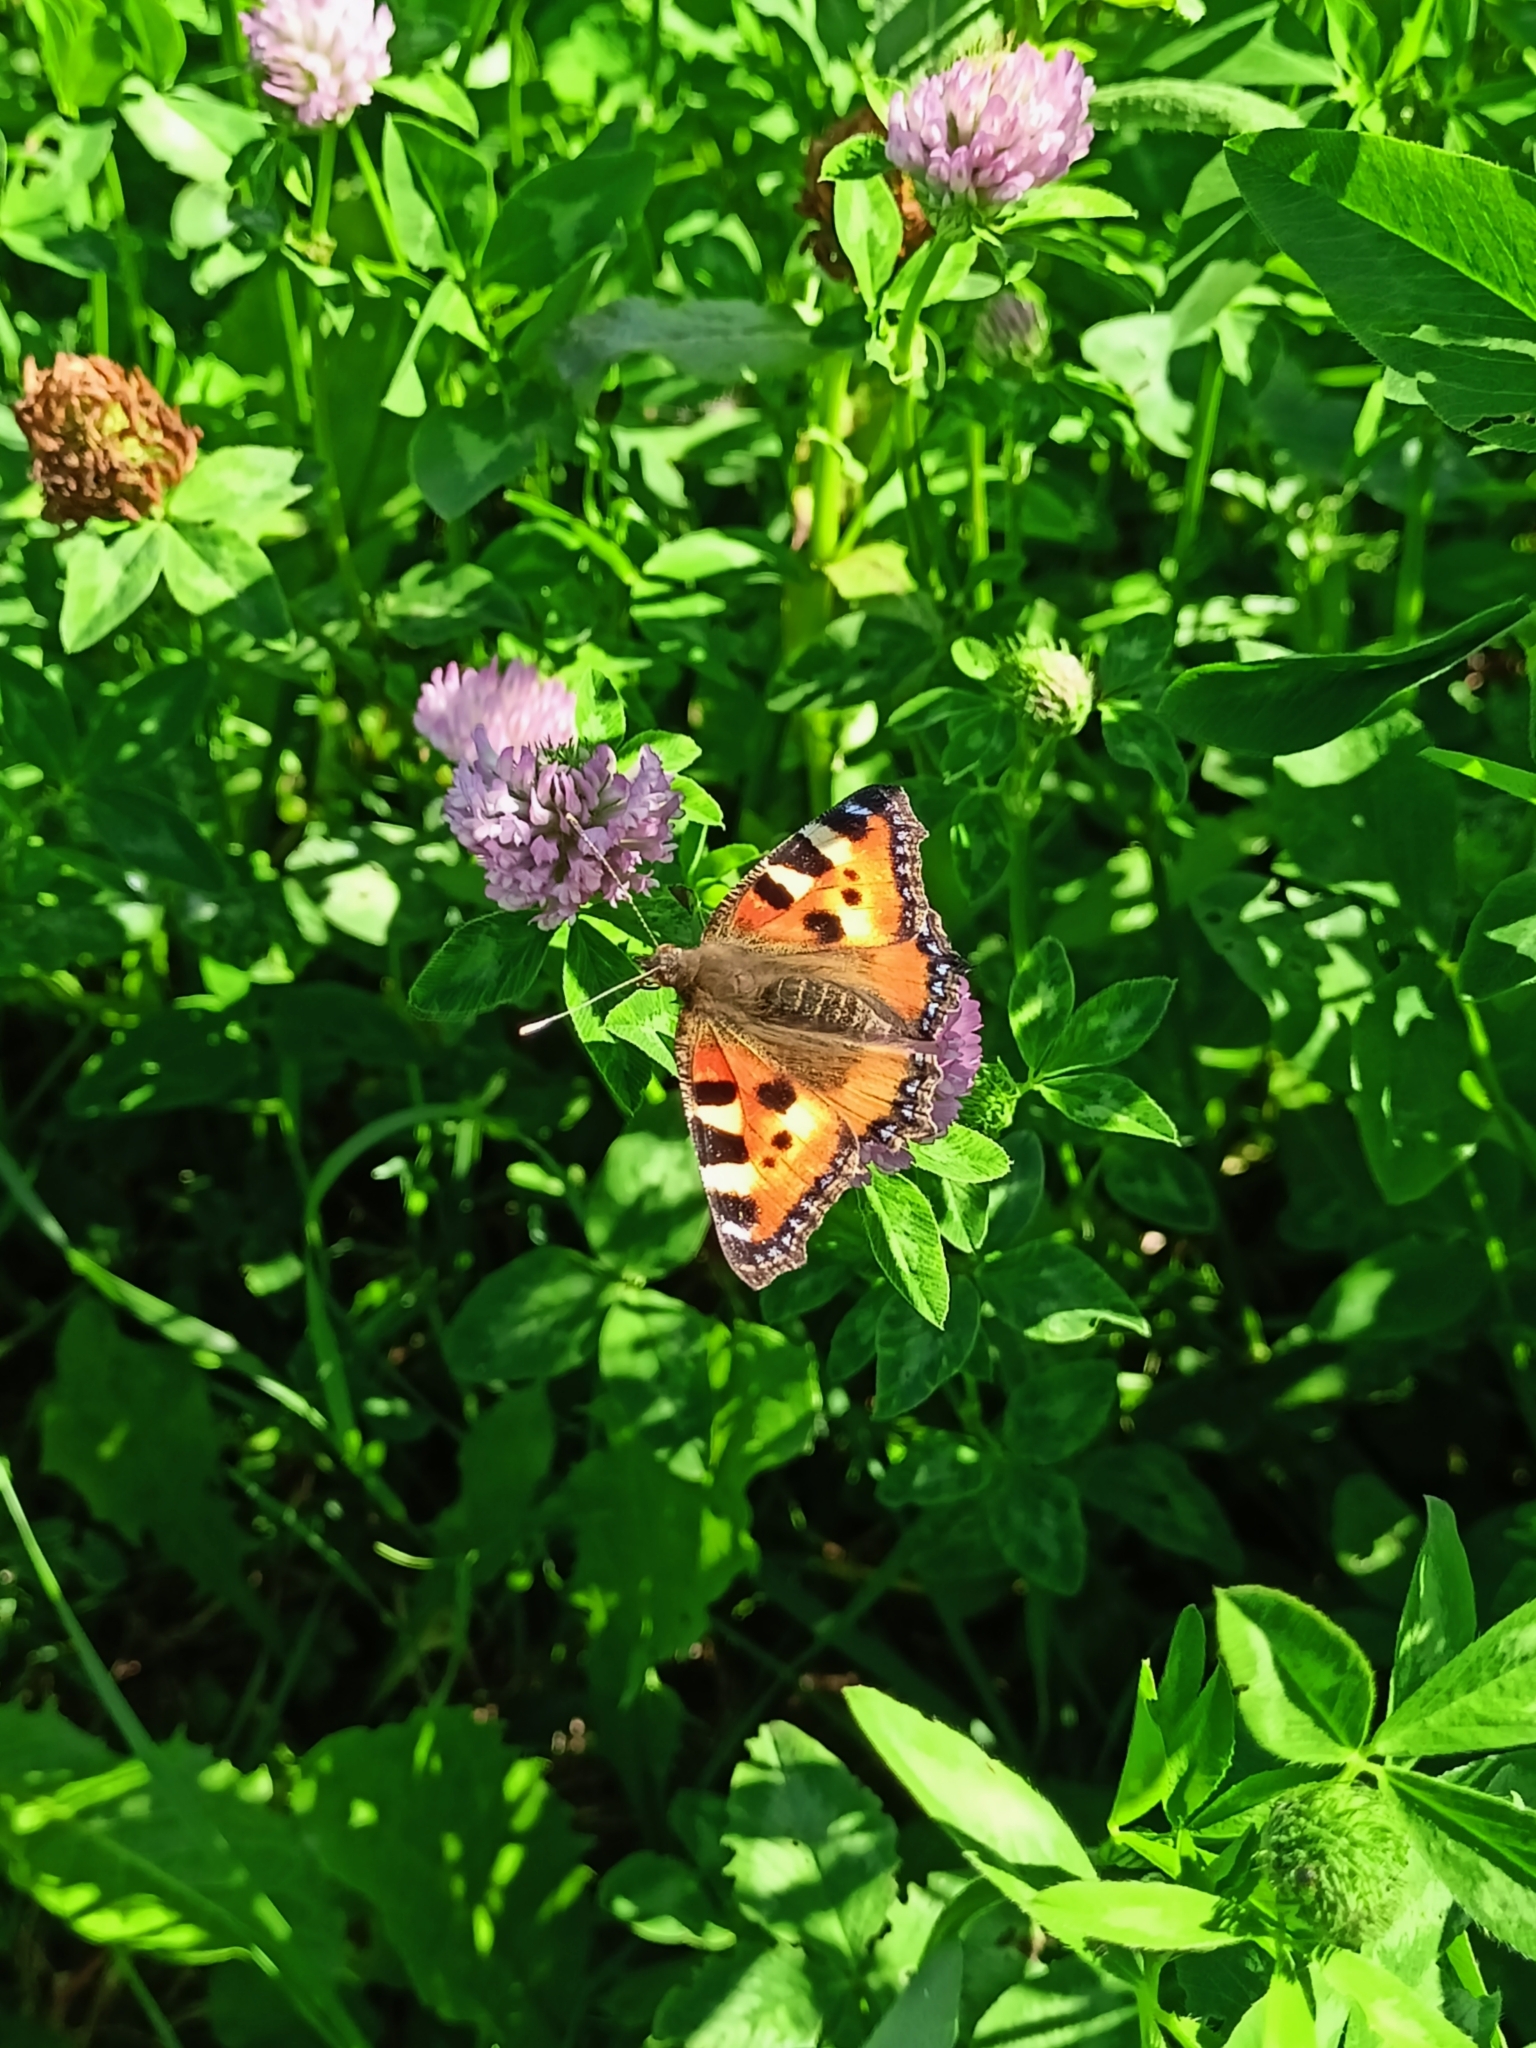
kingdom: Animalia
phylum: Arthropoda
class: Insecta
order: Lepidoptera
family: Nymphalidae
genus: Aglais
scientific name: Aglais urticae
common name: Small tortoiseshell
